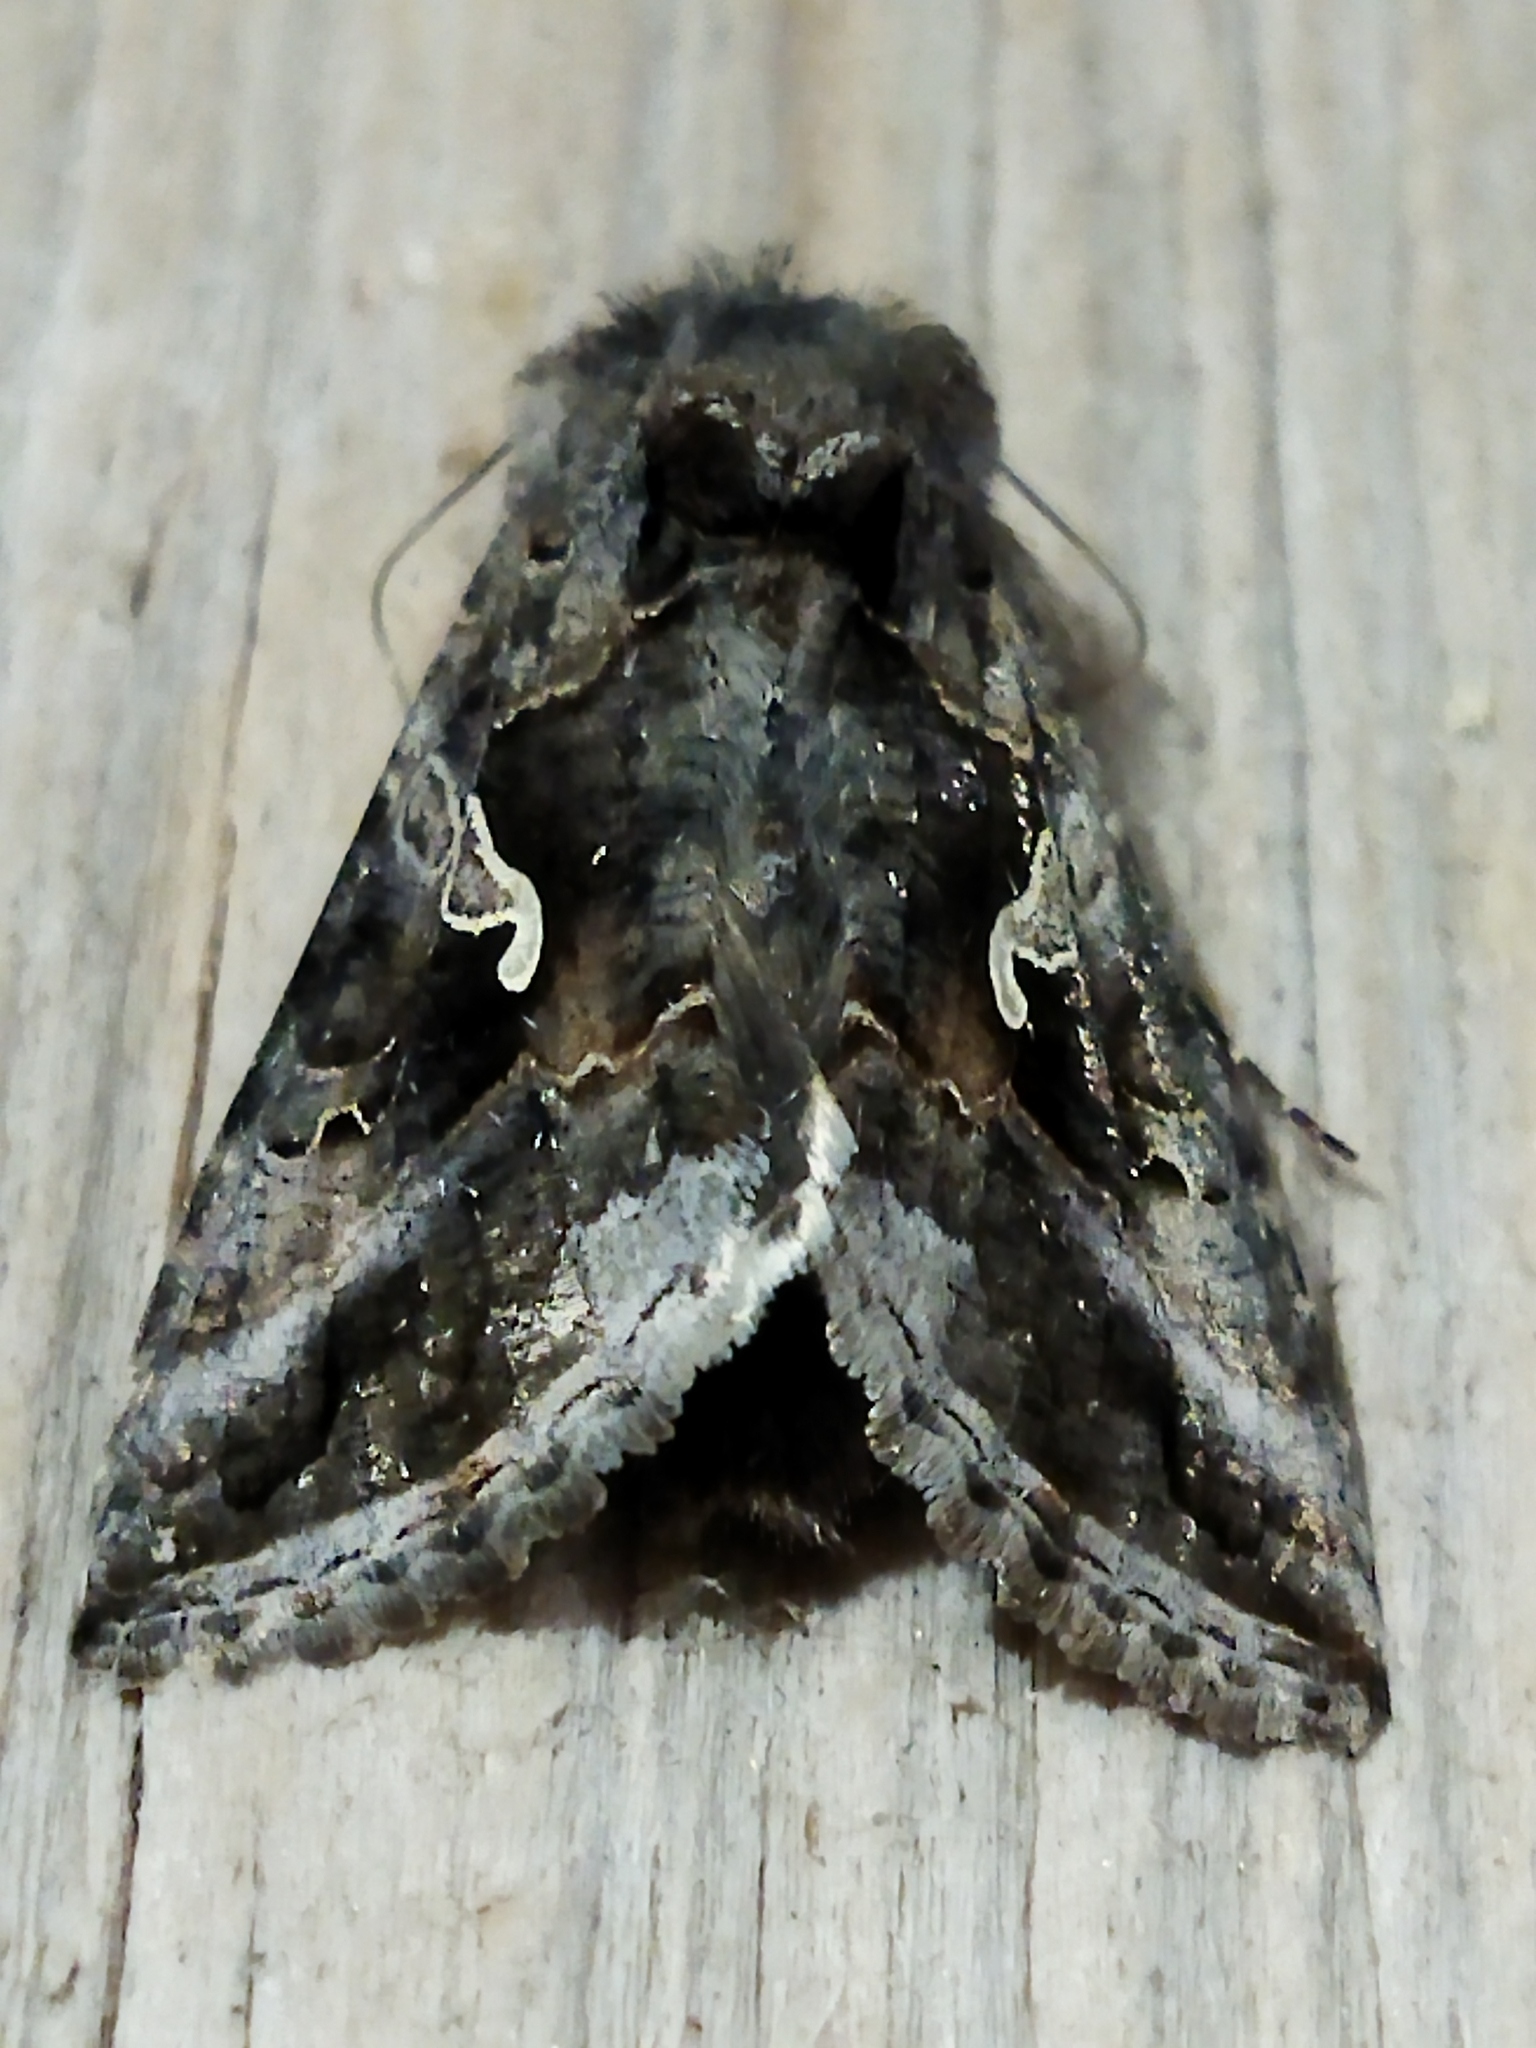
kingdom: Animalia
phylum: Arthropoda
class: Insecta
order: Lepidoptera
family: Noctuidae
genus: Autographa
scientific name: Autographa gamma
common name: Silver y
